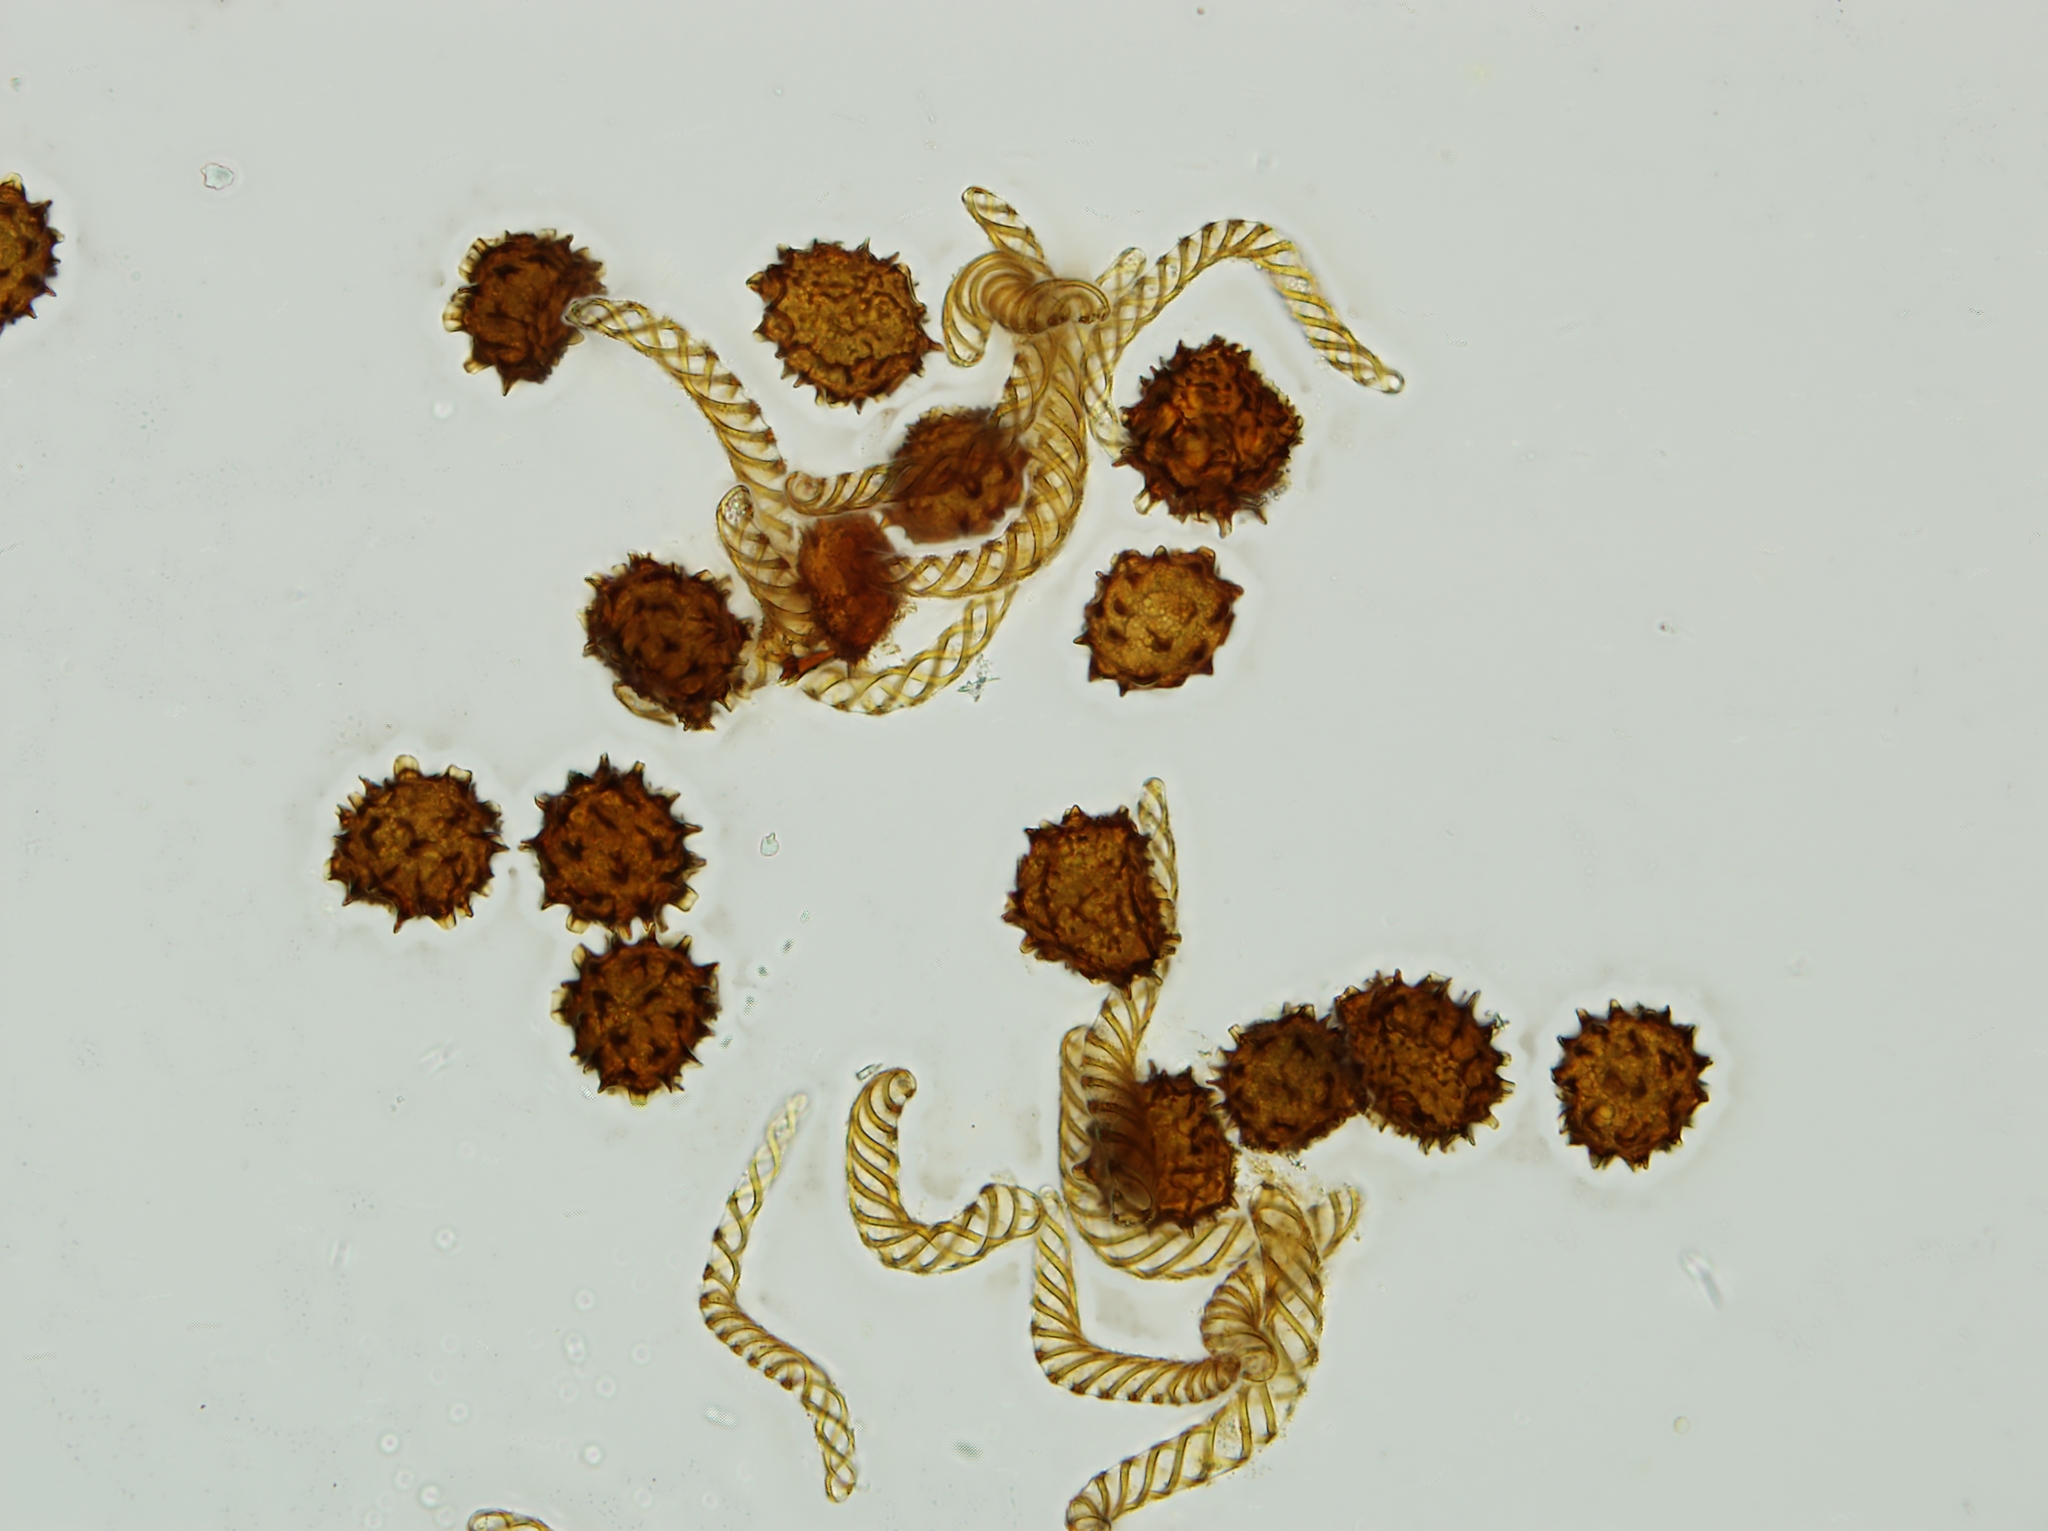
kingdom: Plantae
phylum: Marchantiophyta
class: Jungermanniopsida
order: Fossombroniales
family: Fossombroniaceae
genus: Fossombronia
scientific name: Fossombronia caespitiformis
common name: Spanish frillwort
